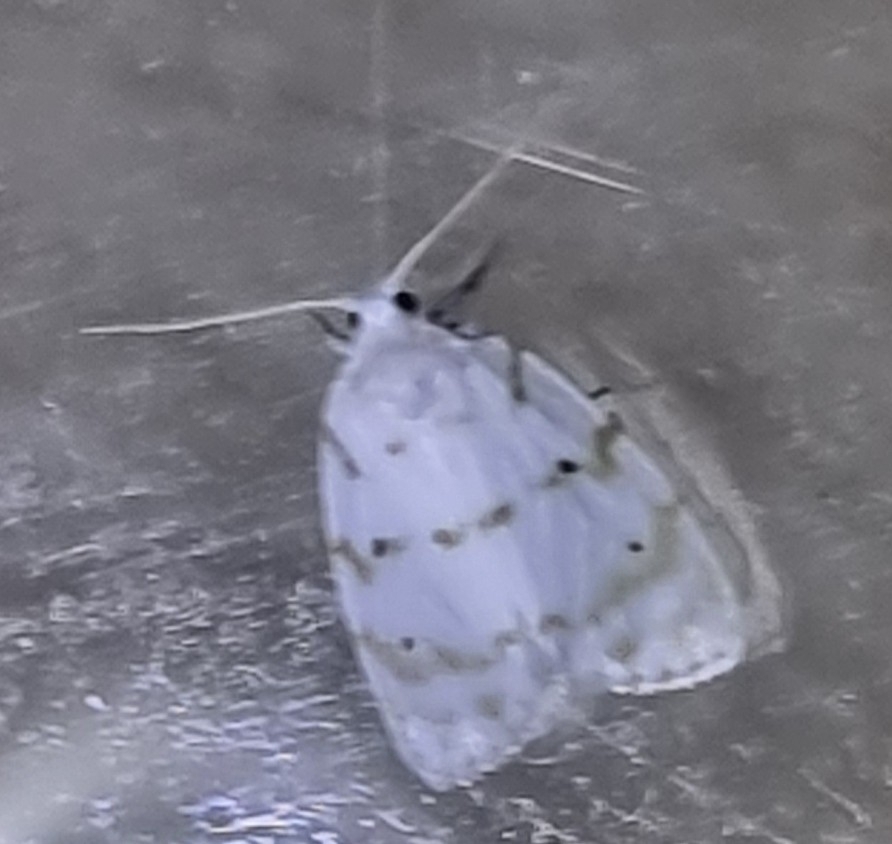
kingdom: Animalia
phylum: Arthropoda
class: Insecta
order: Lepidoptera
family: Erebidae
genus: Schistophleps
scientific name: Schistophleps albida
